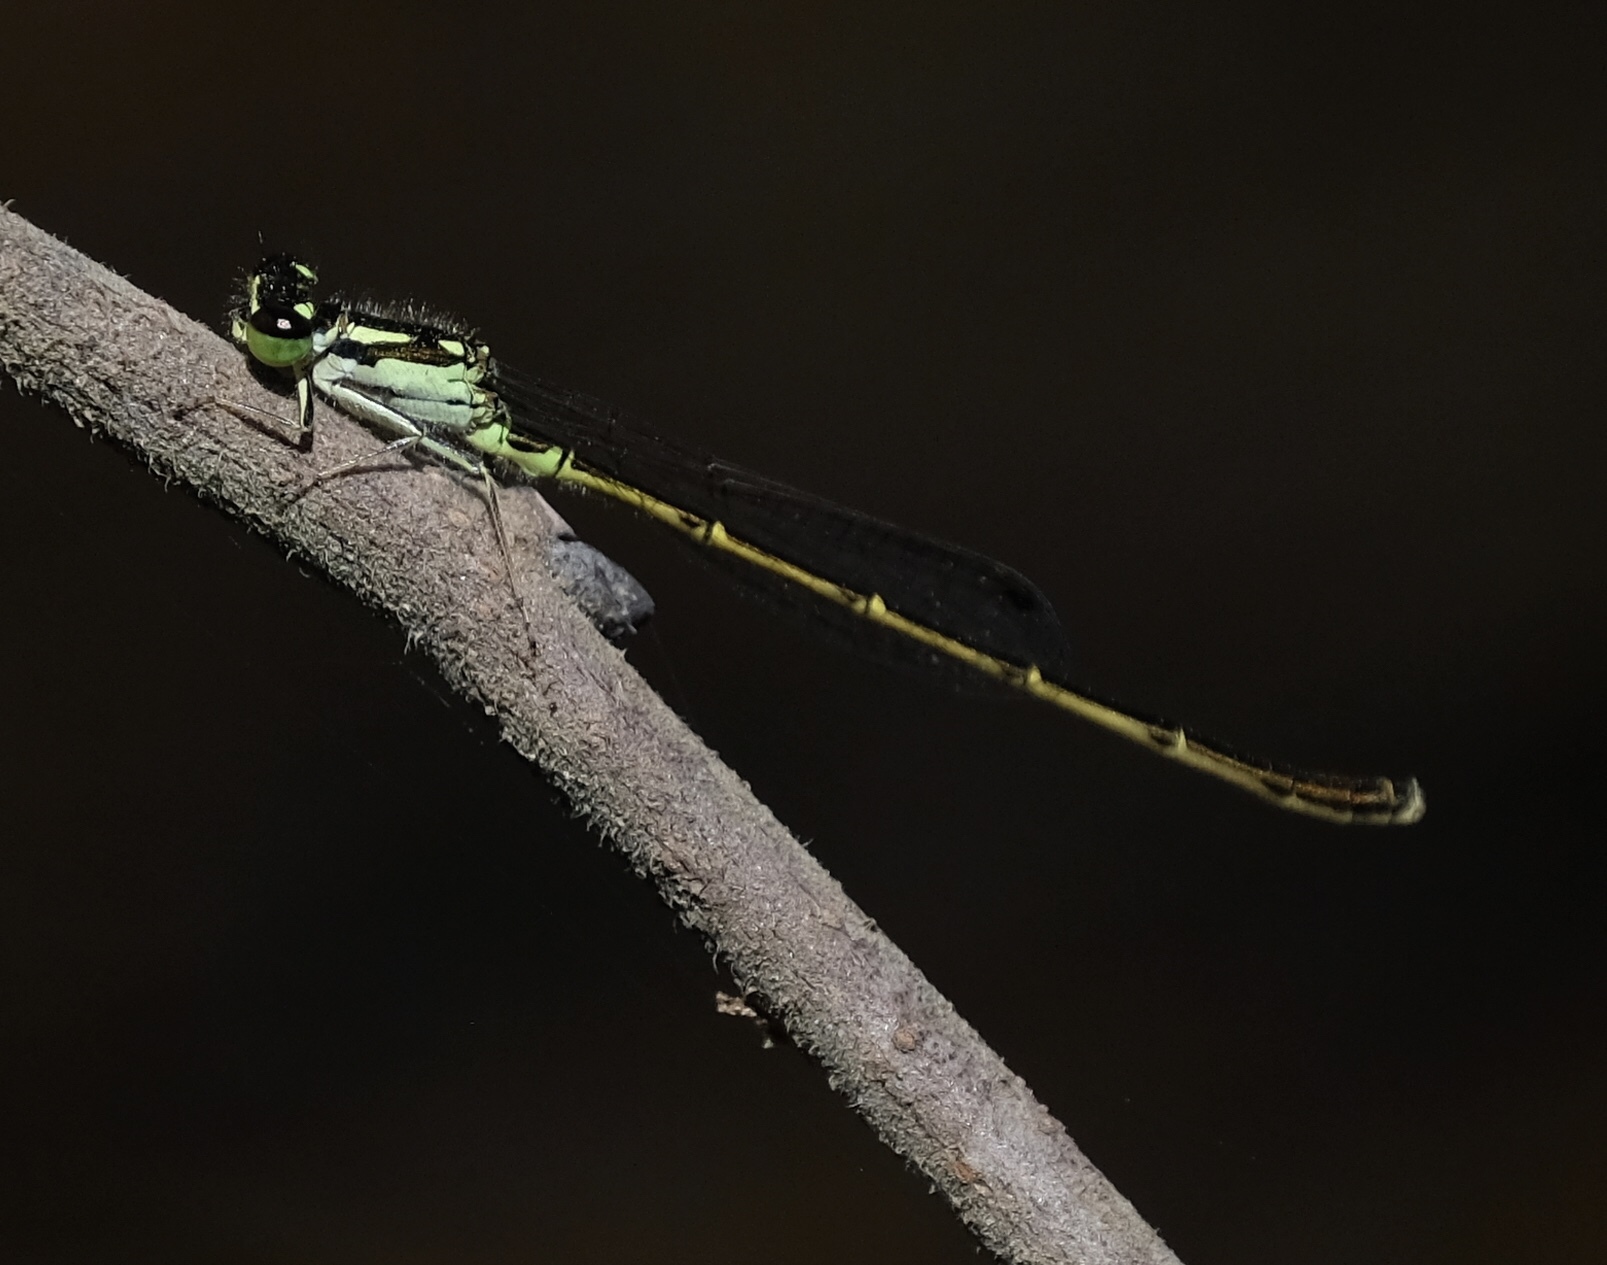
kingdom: Animalia
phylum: Arthropoda
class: Insecta
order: Odonata
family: Coenagrionidae
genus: Ischnura
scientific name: Ischnura posita
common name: Fragile forktail
